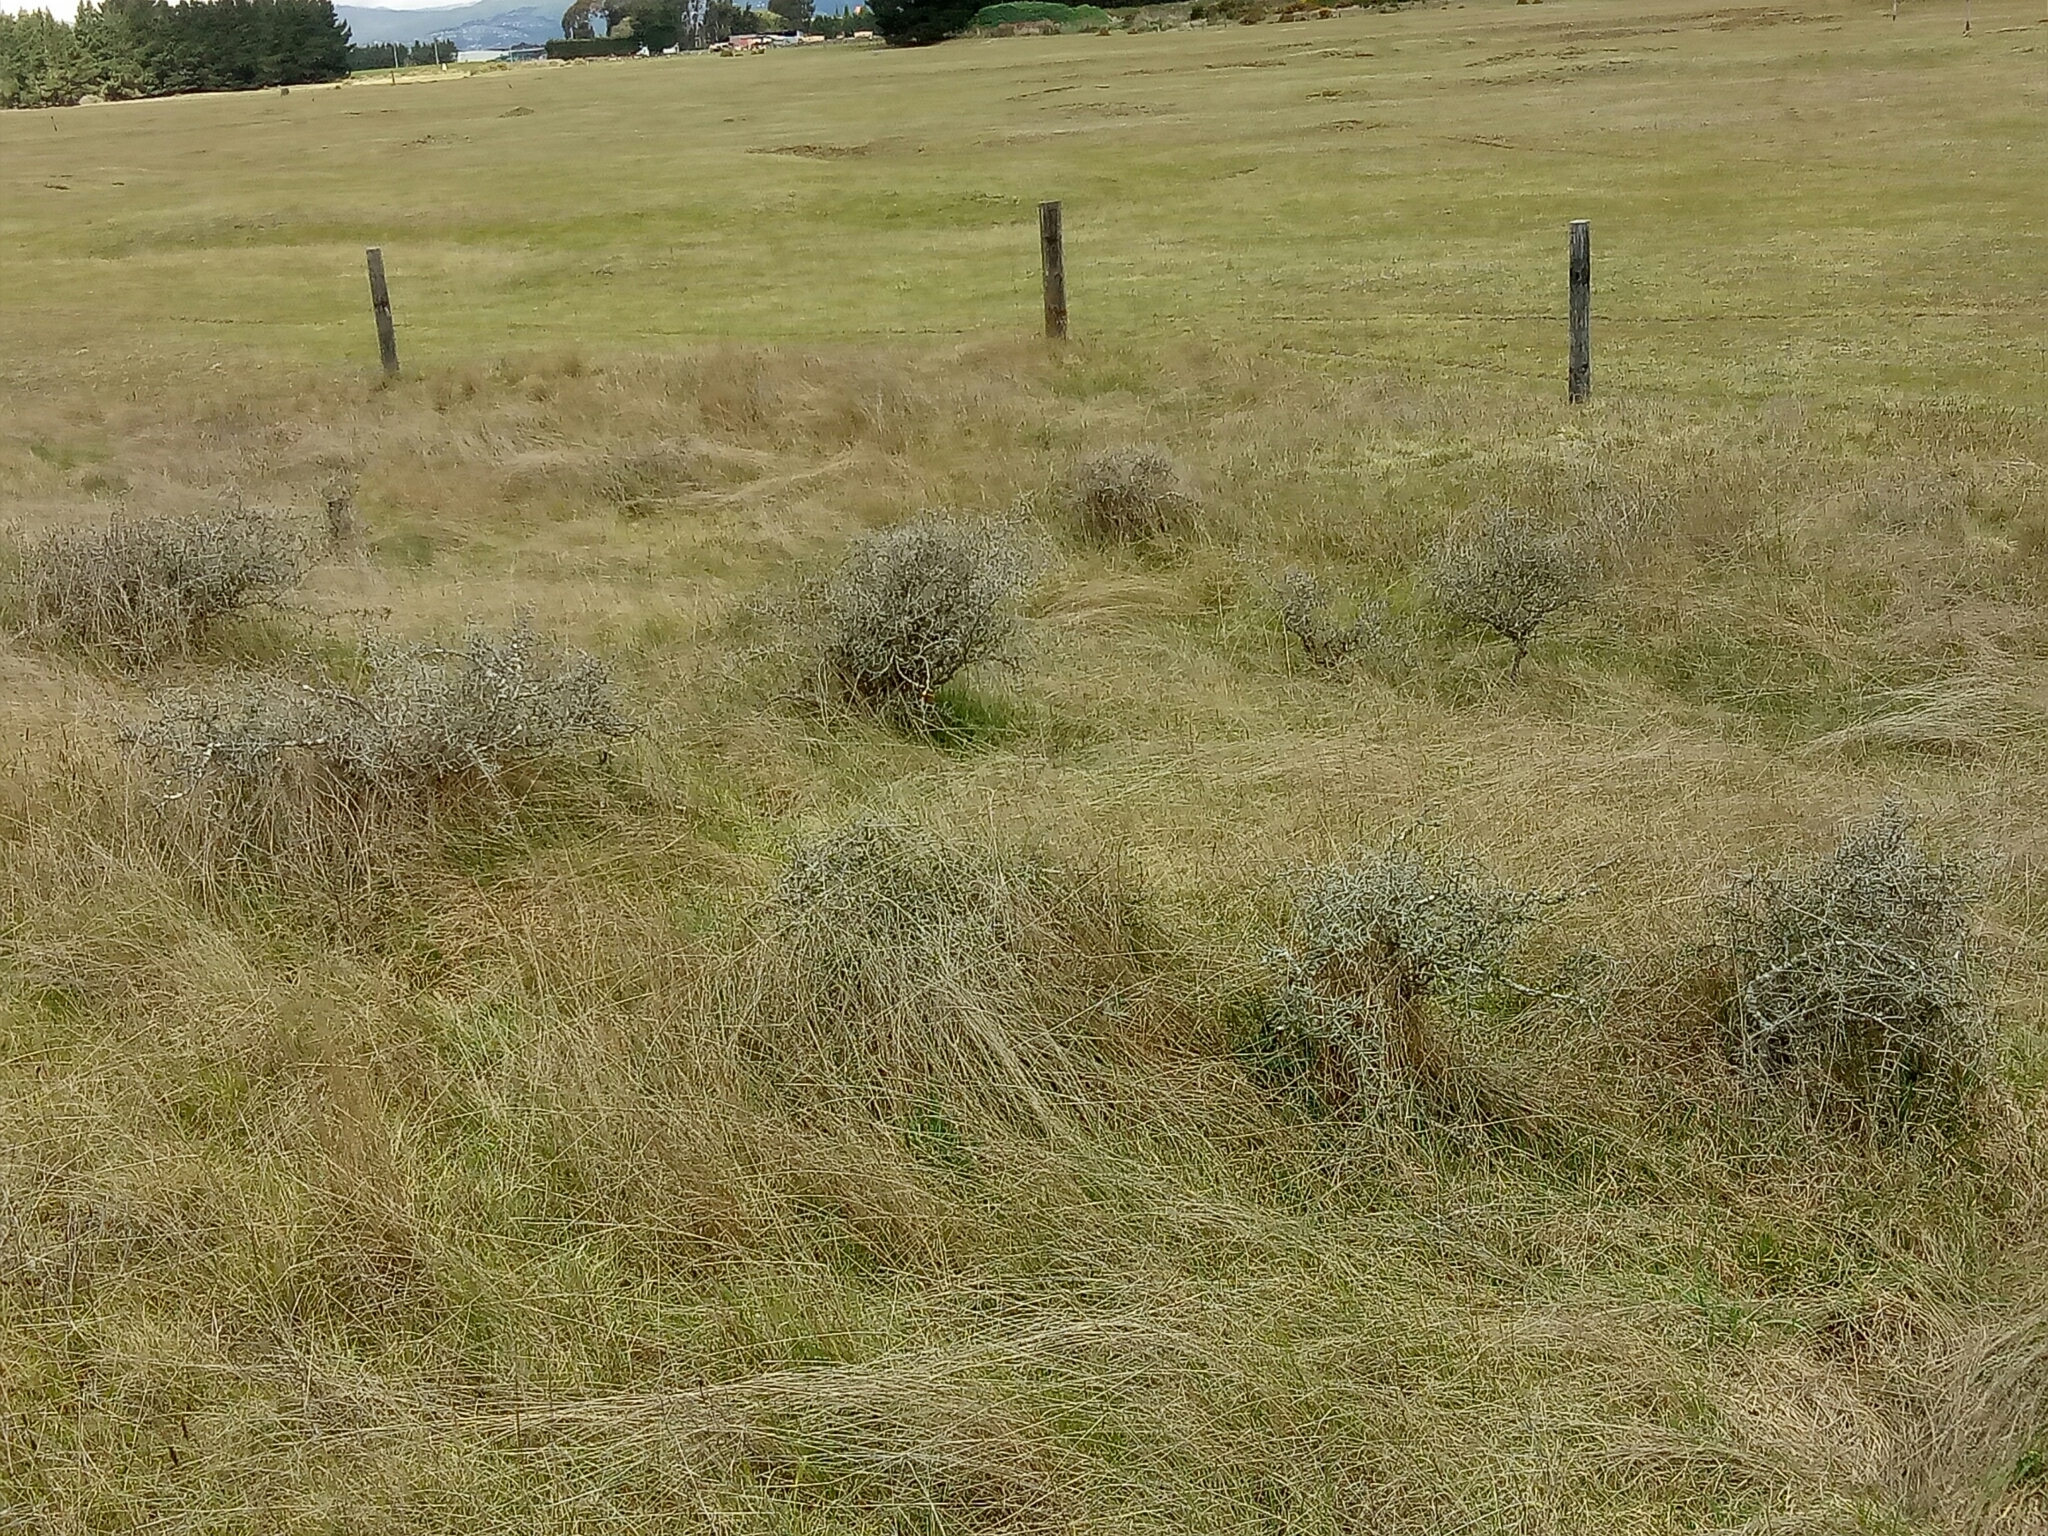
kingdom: Plantae
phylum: Tracheophyta
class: Magnoliopsida
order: Rosales
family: Rhamnaceae
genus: Discaria
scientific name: Discaria toumatou
